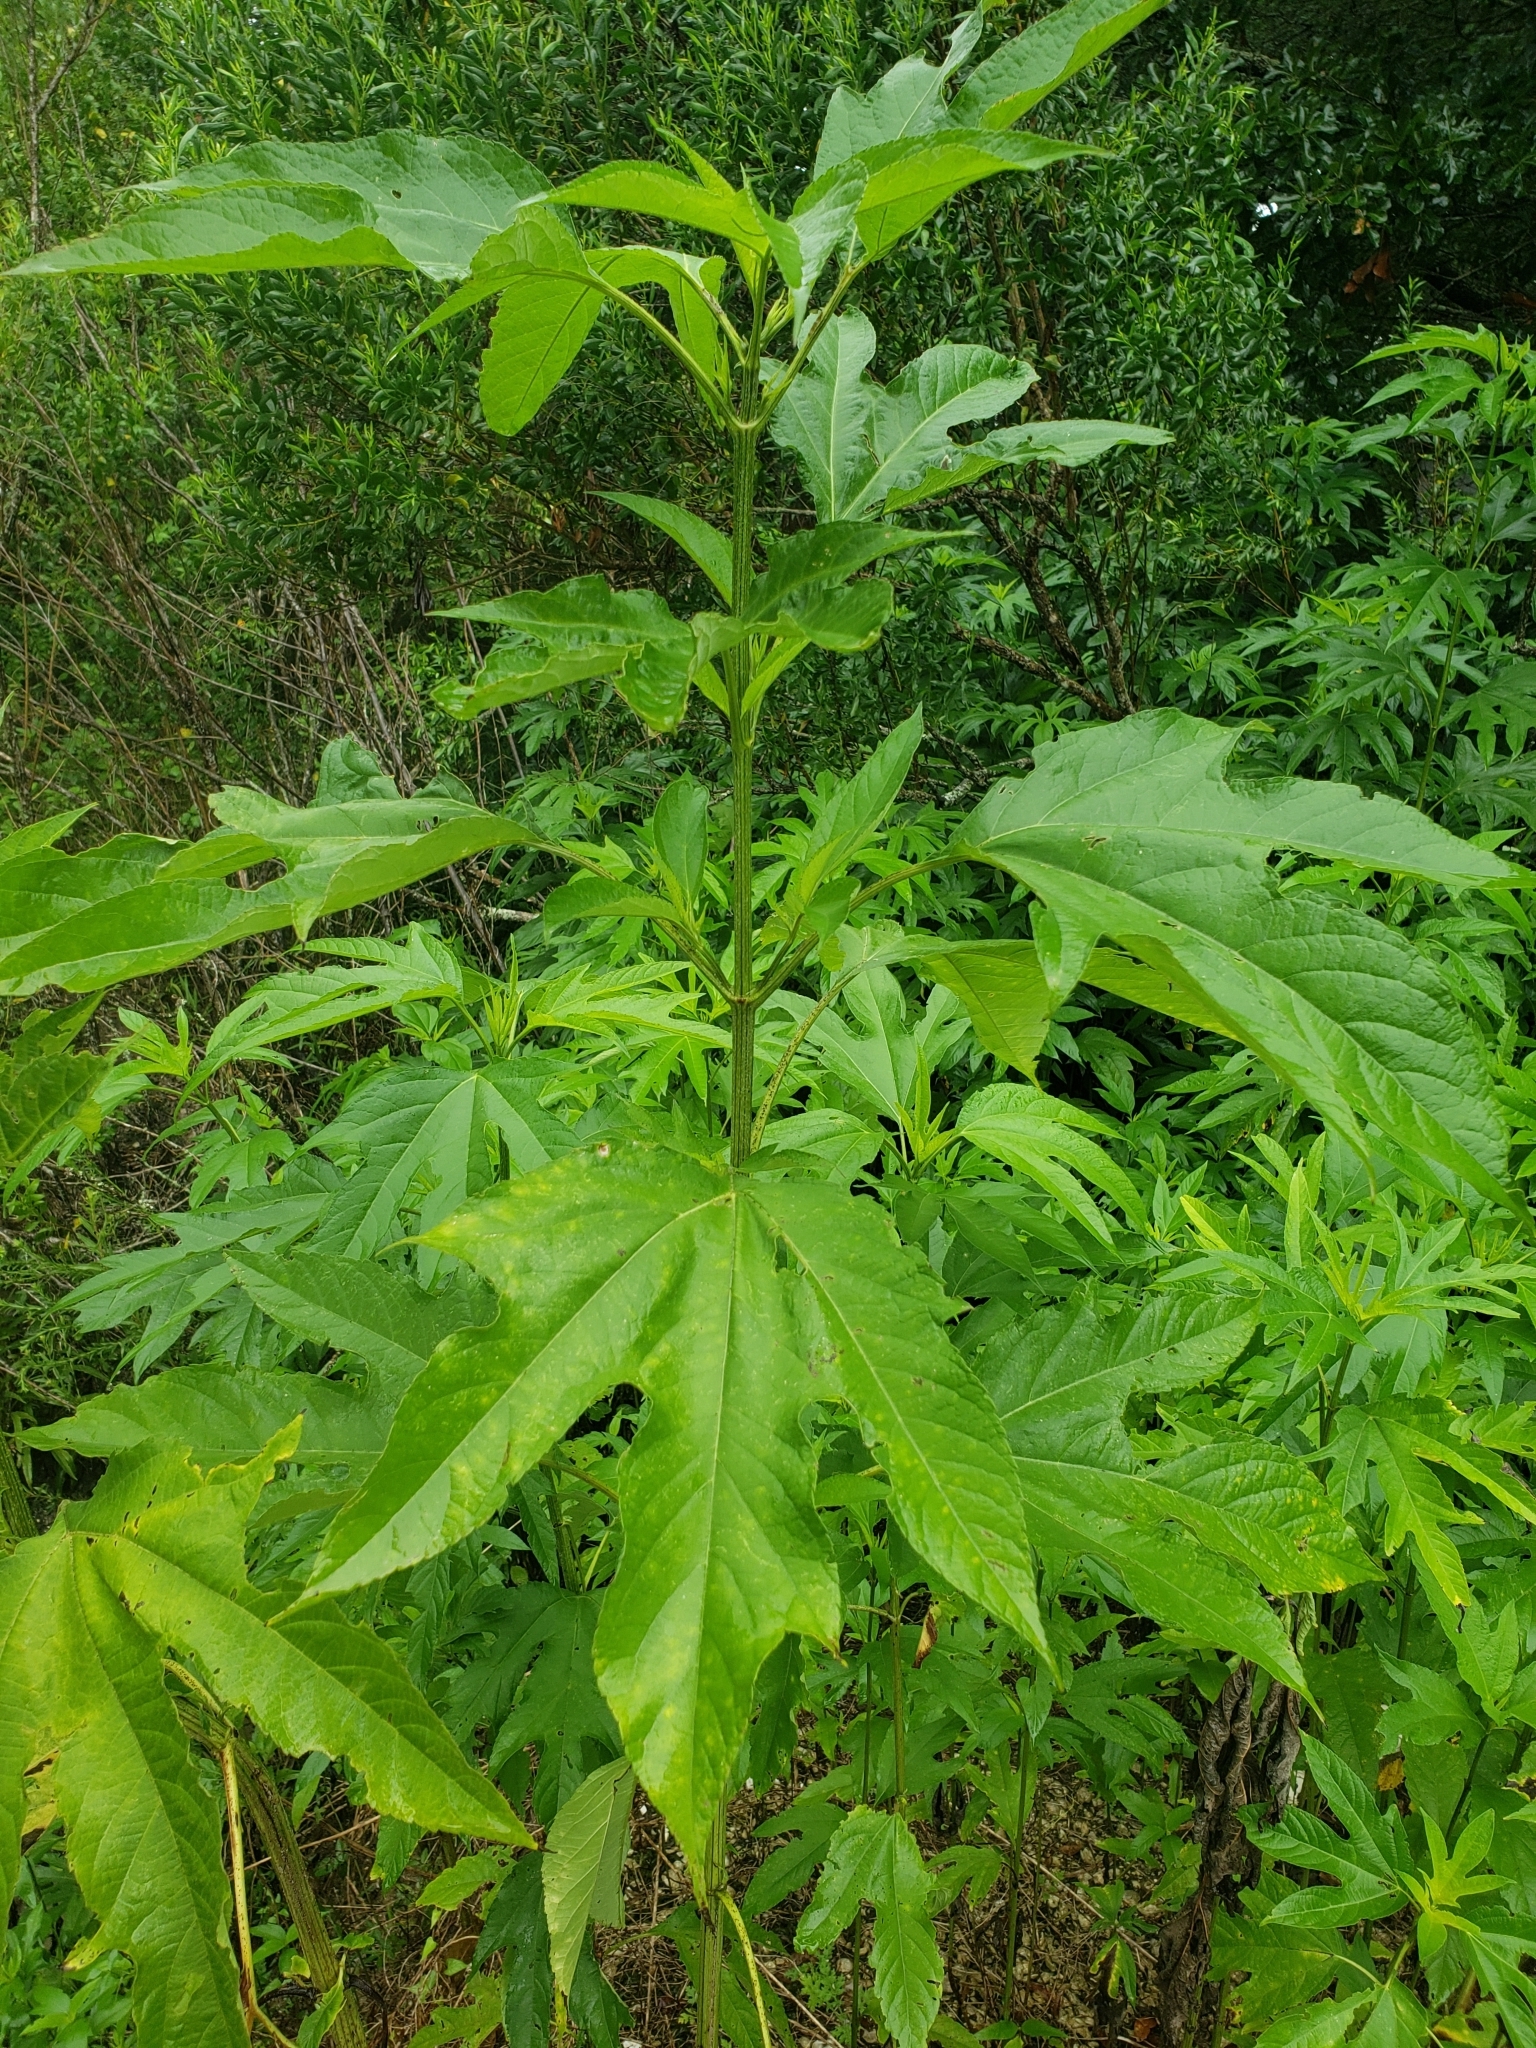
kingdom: Plantae
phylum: Tracheophyta
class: Magnoliopsida
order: Asterales
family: Asteraceae
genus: Ambrosia
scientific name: Ambrosia trifida
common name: Giant ragweed
